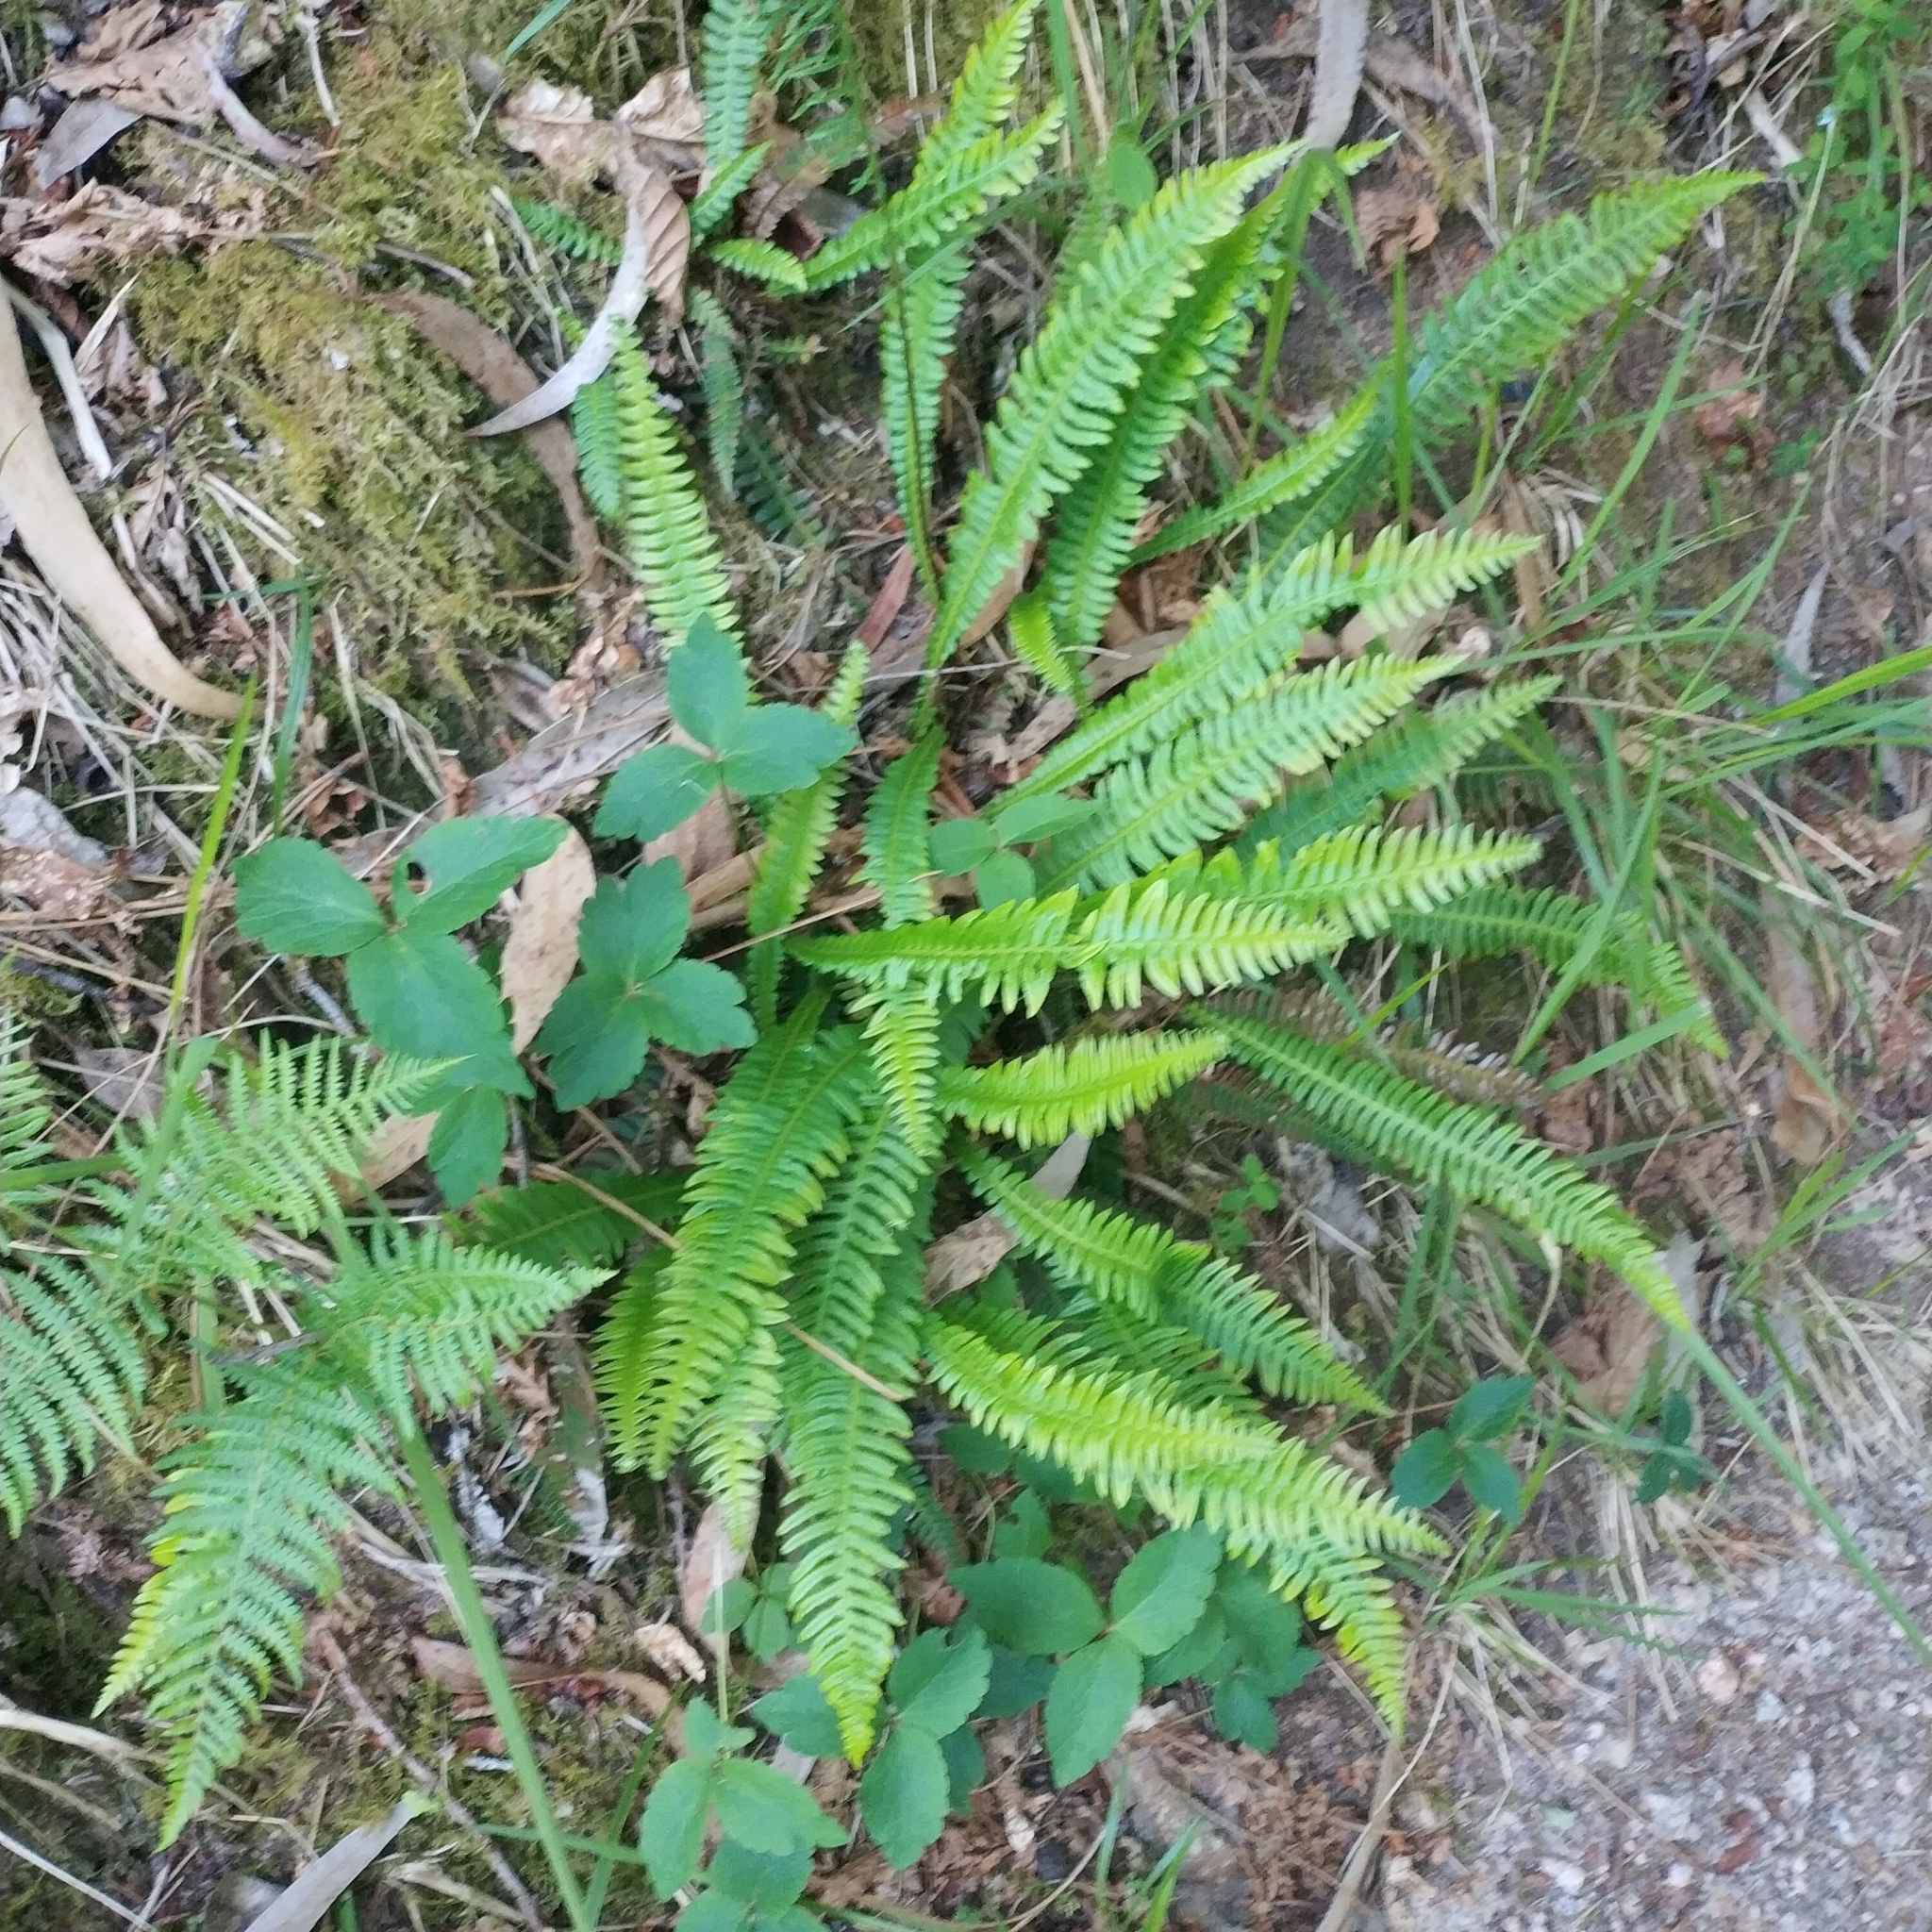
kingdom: Plantae
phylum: Tracheophyta
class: Polypodiopsida
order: Polypodiales
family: Blechnaceae
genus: Struthiopteris
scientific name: Struthiopteris spicant
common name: Deer fern
